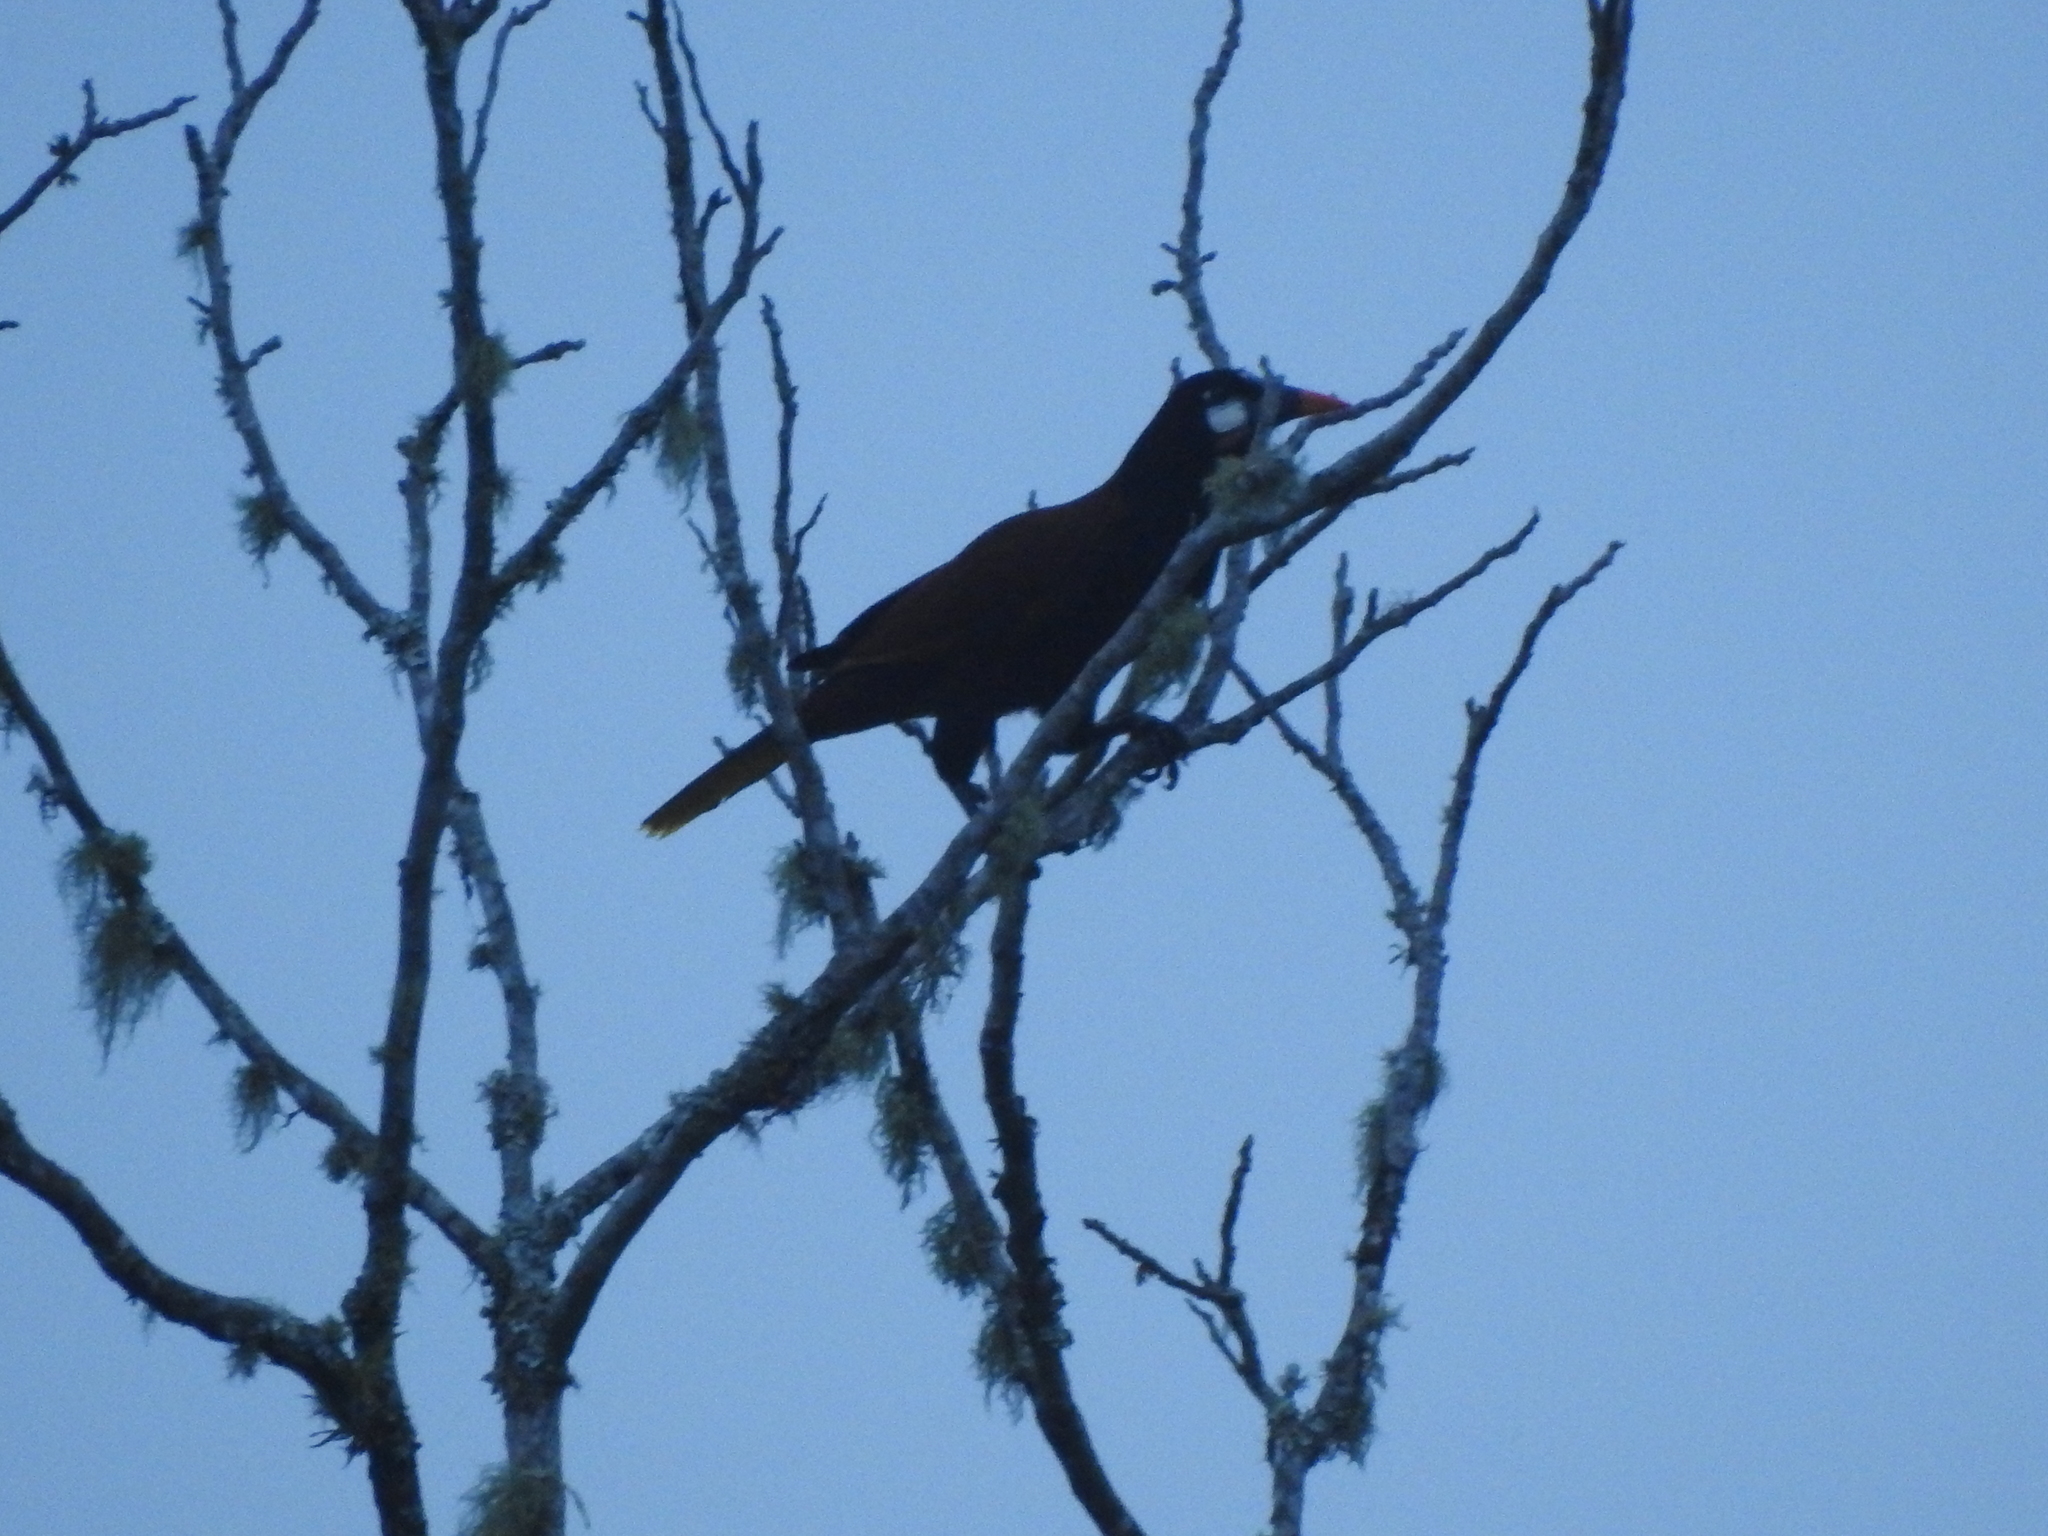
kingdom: Animalia
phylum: Chordata
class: Aves
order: Passeriformes
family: Icteridae
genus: Psarocolius
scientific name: Psarocolius montezuma
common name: Montezuma oropendola
